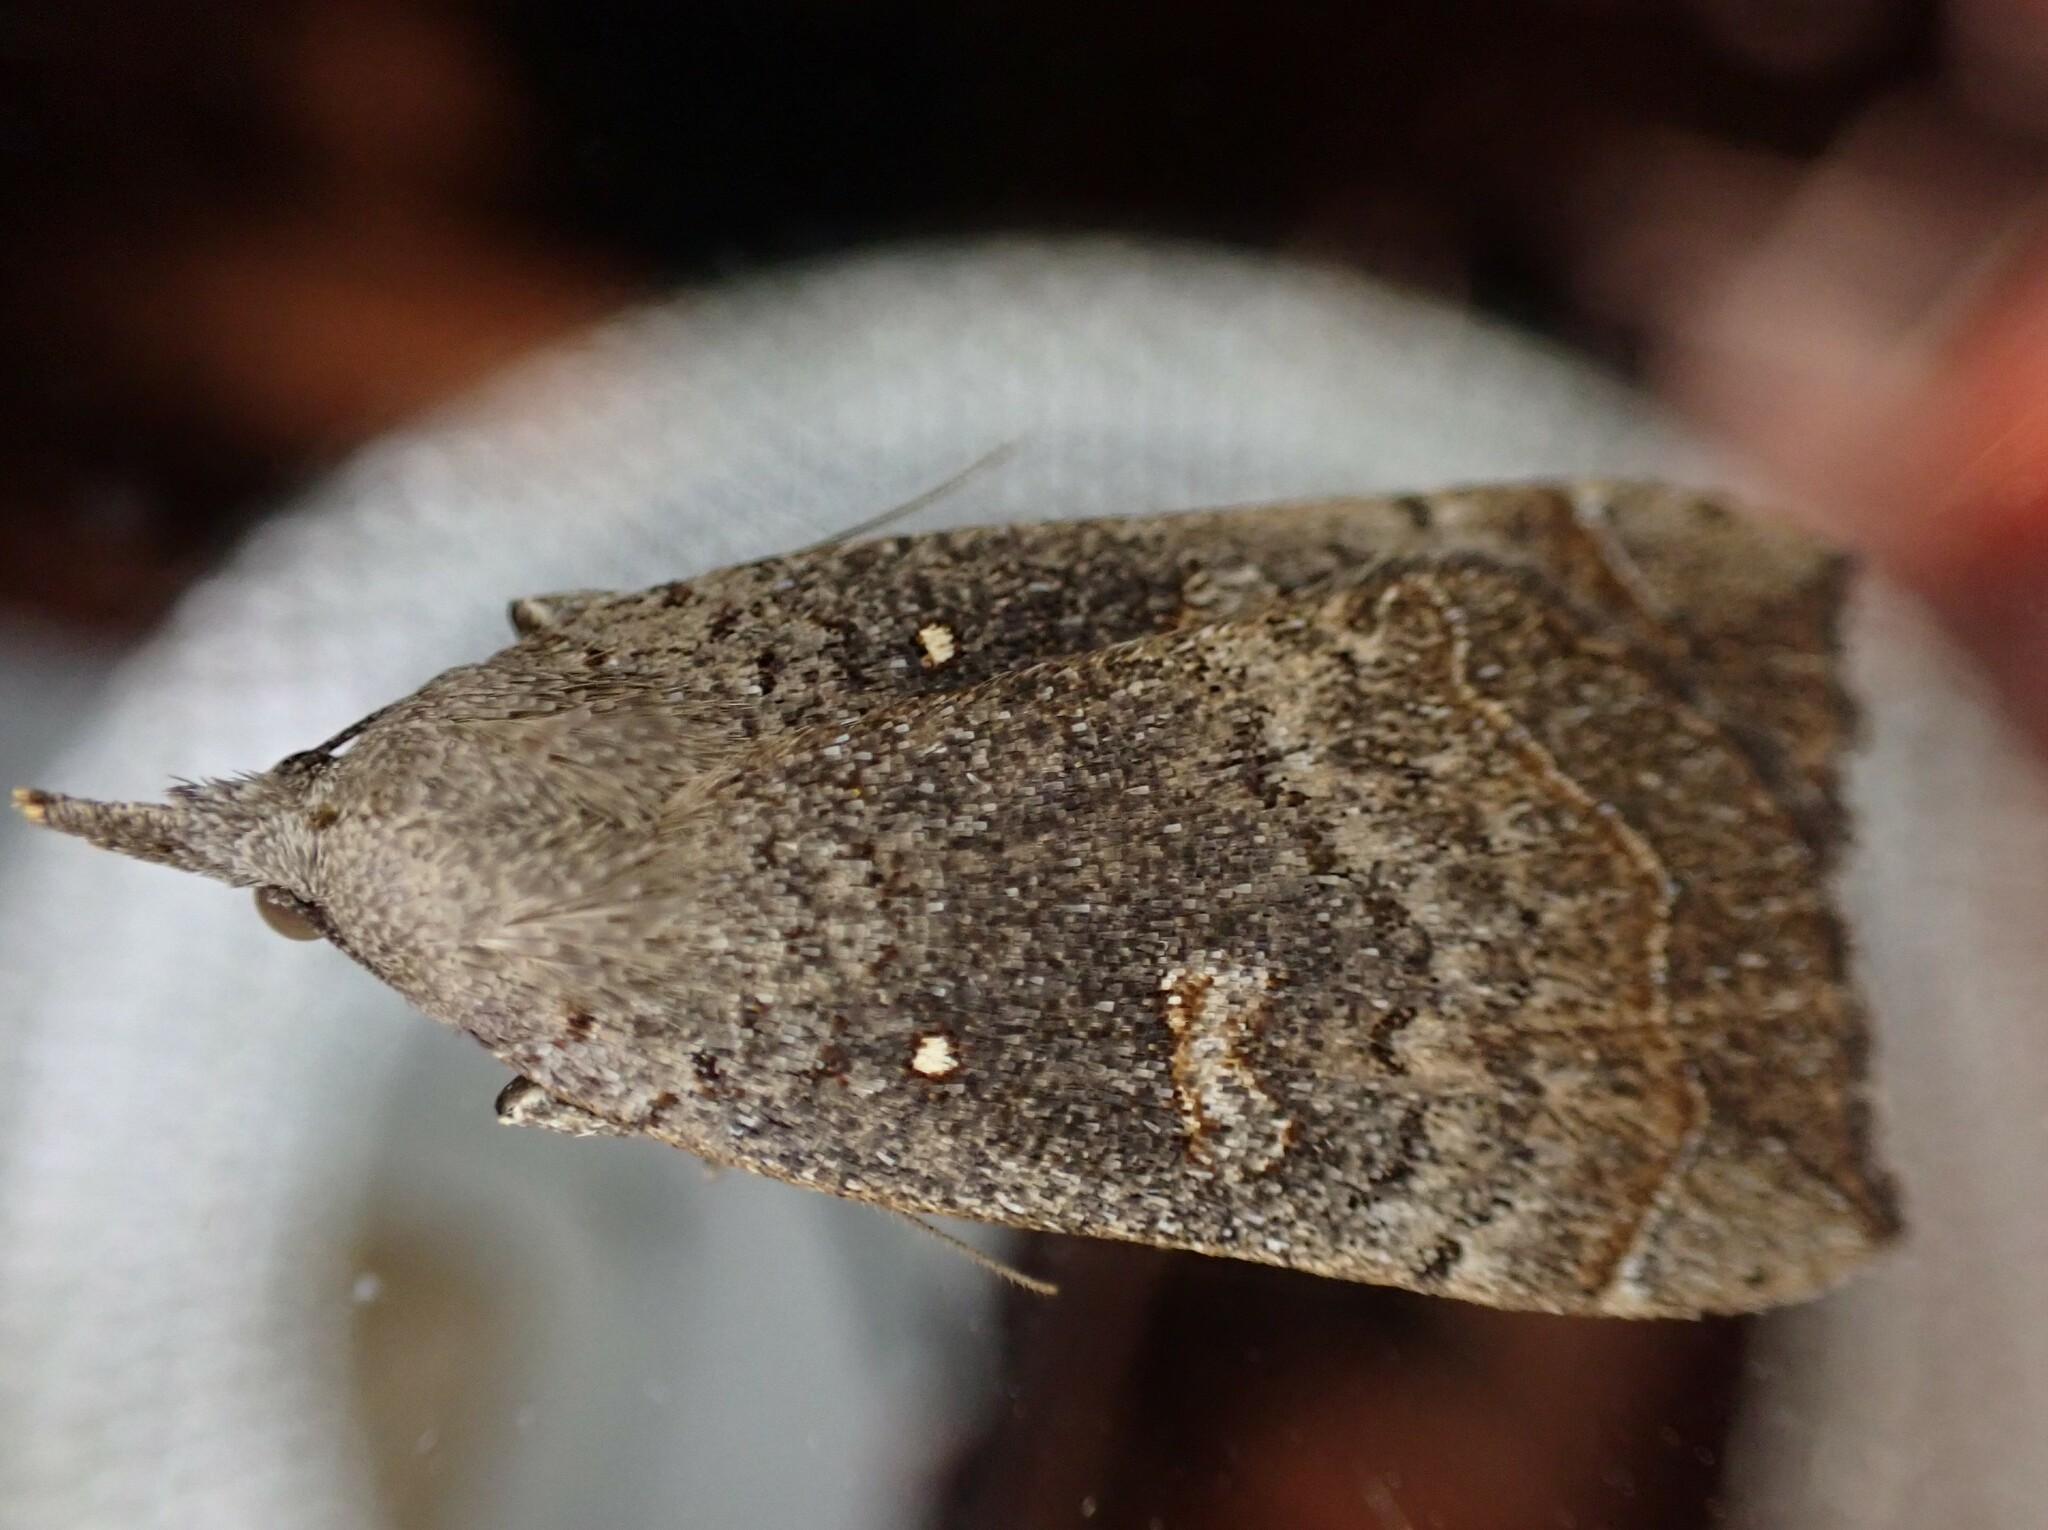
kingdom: Animalia
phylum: Arthropoda
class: Insecta
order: Lepidoptera
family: Erebidae
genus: Rhapsa
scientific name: Rhapsa scotosialis
